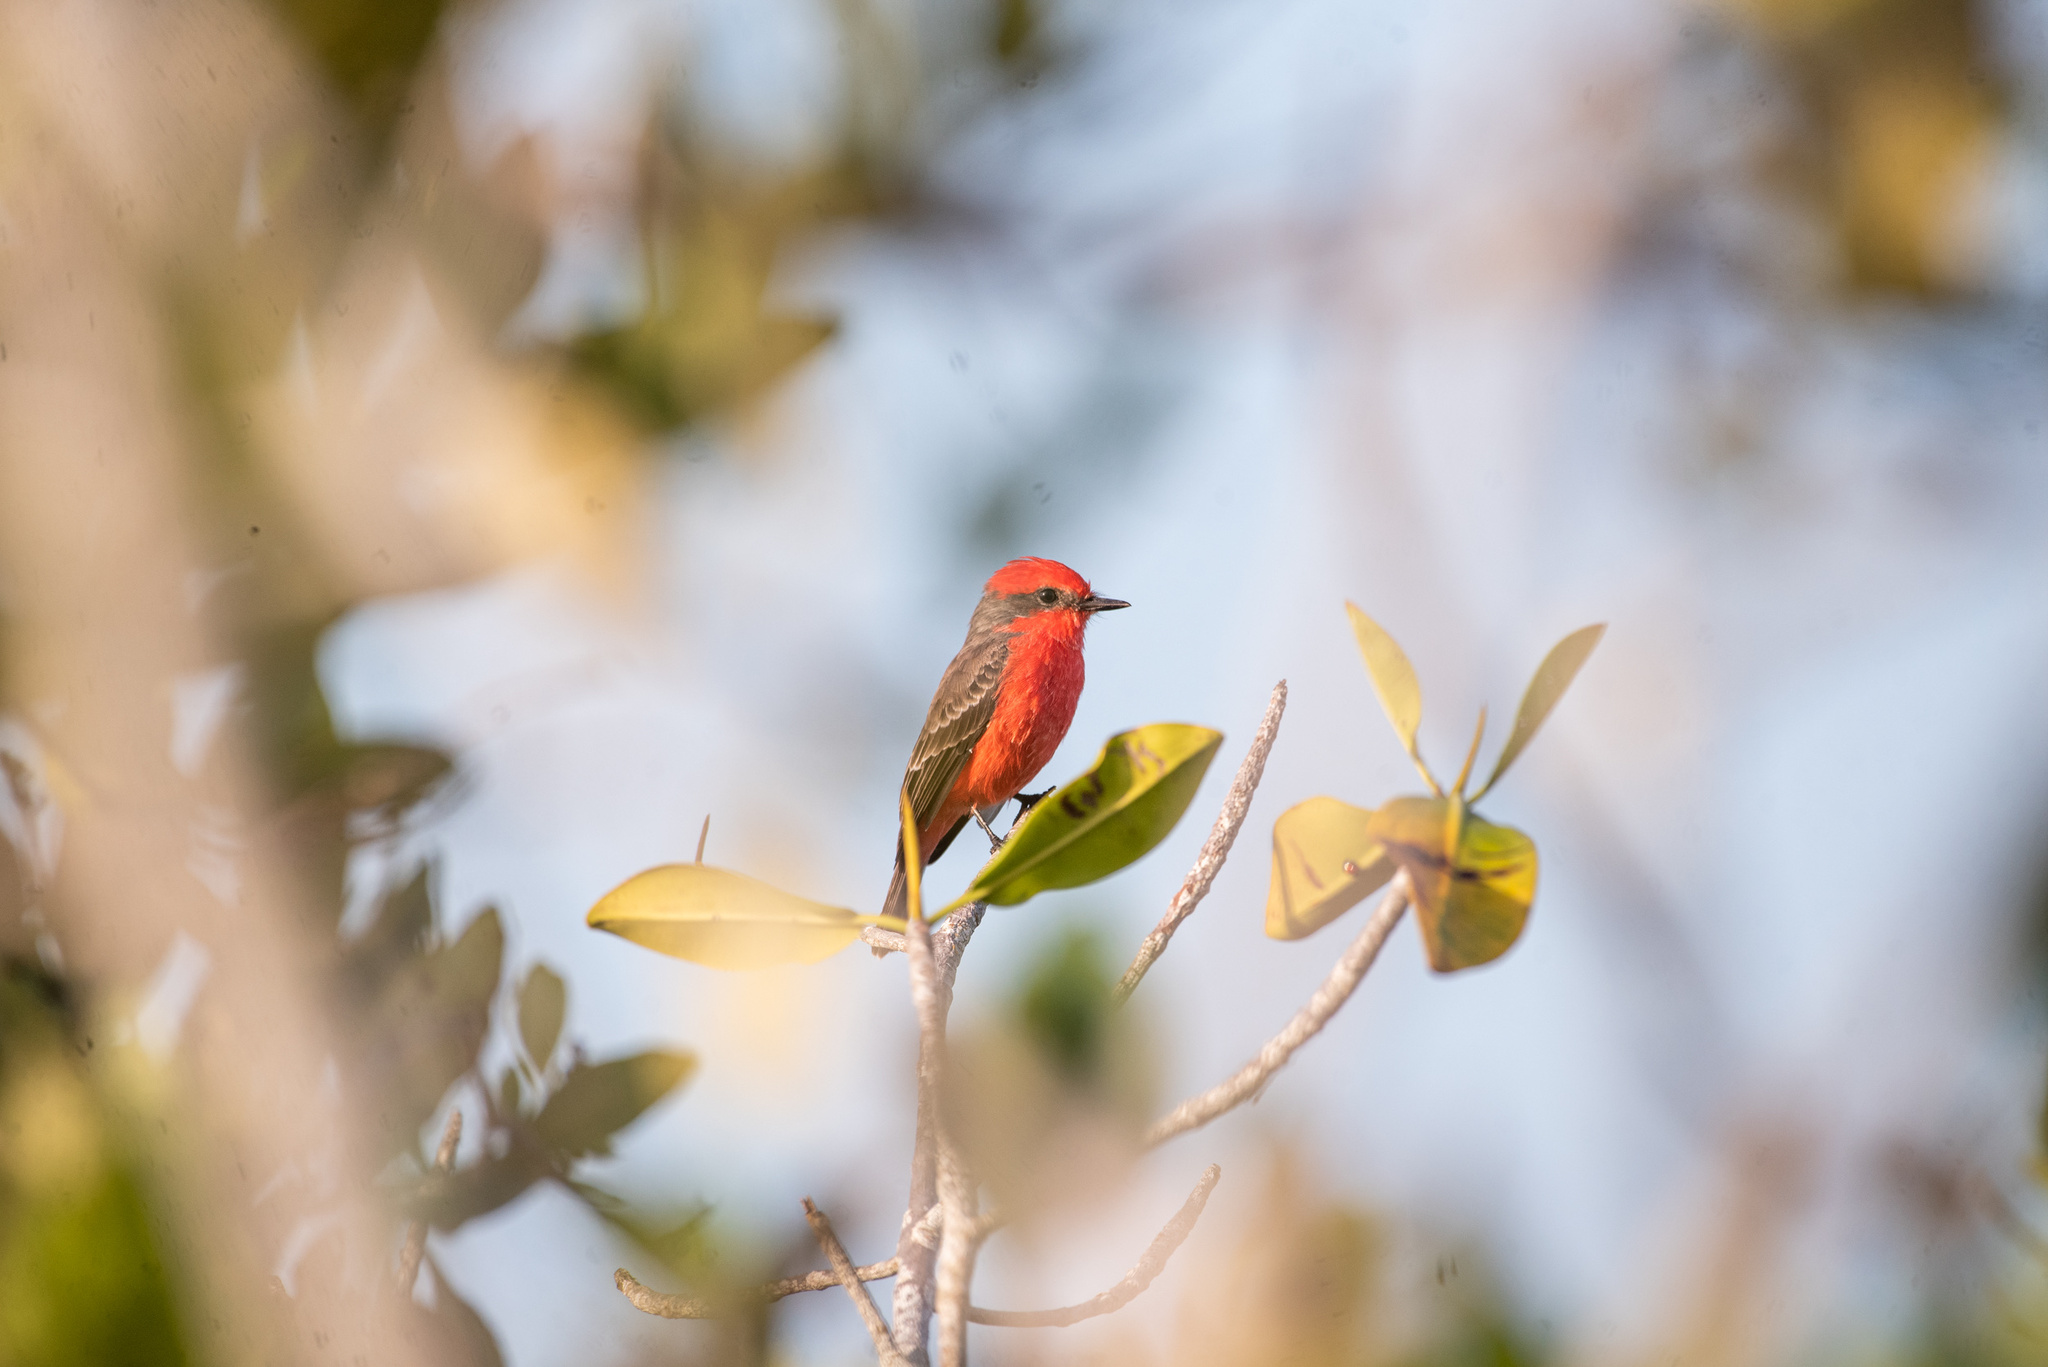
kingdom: Animalia
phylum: Chordata
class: Aves
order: Passeriformes
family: Tyrannidae
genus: Pyrocephalus
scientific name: Pyrocephalus rubinus
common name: Vermilion flycatcher
